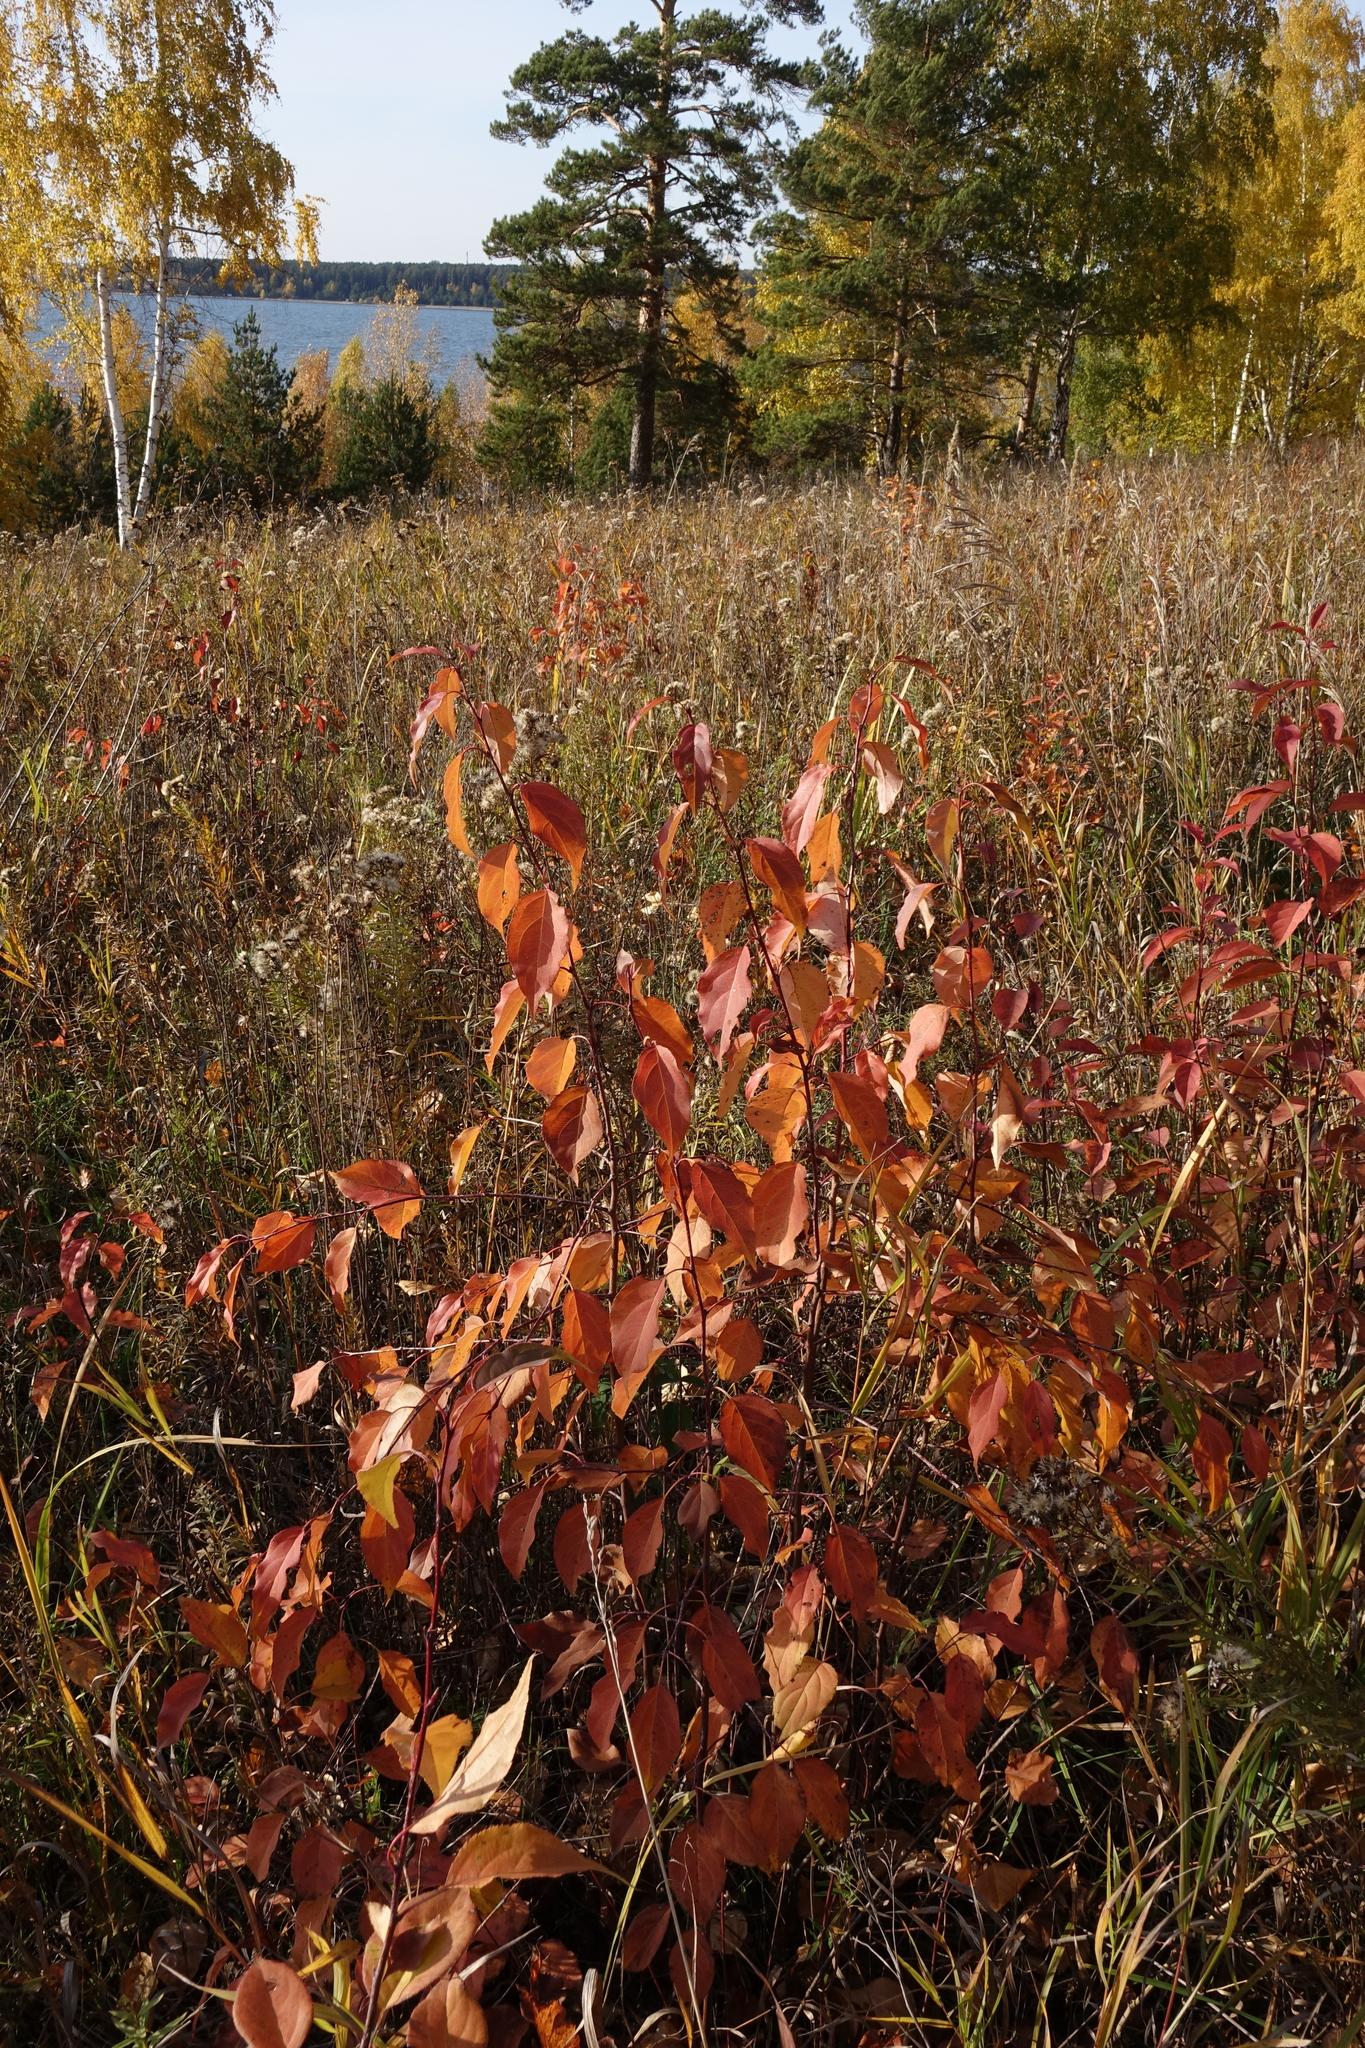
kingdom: Plantae
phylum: Tracheophyta
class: Magnoliopsida
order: Rosales
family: Rosaceae
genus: Malus
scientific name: Malus baccata
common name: Siberian crab
